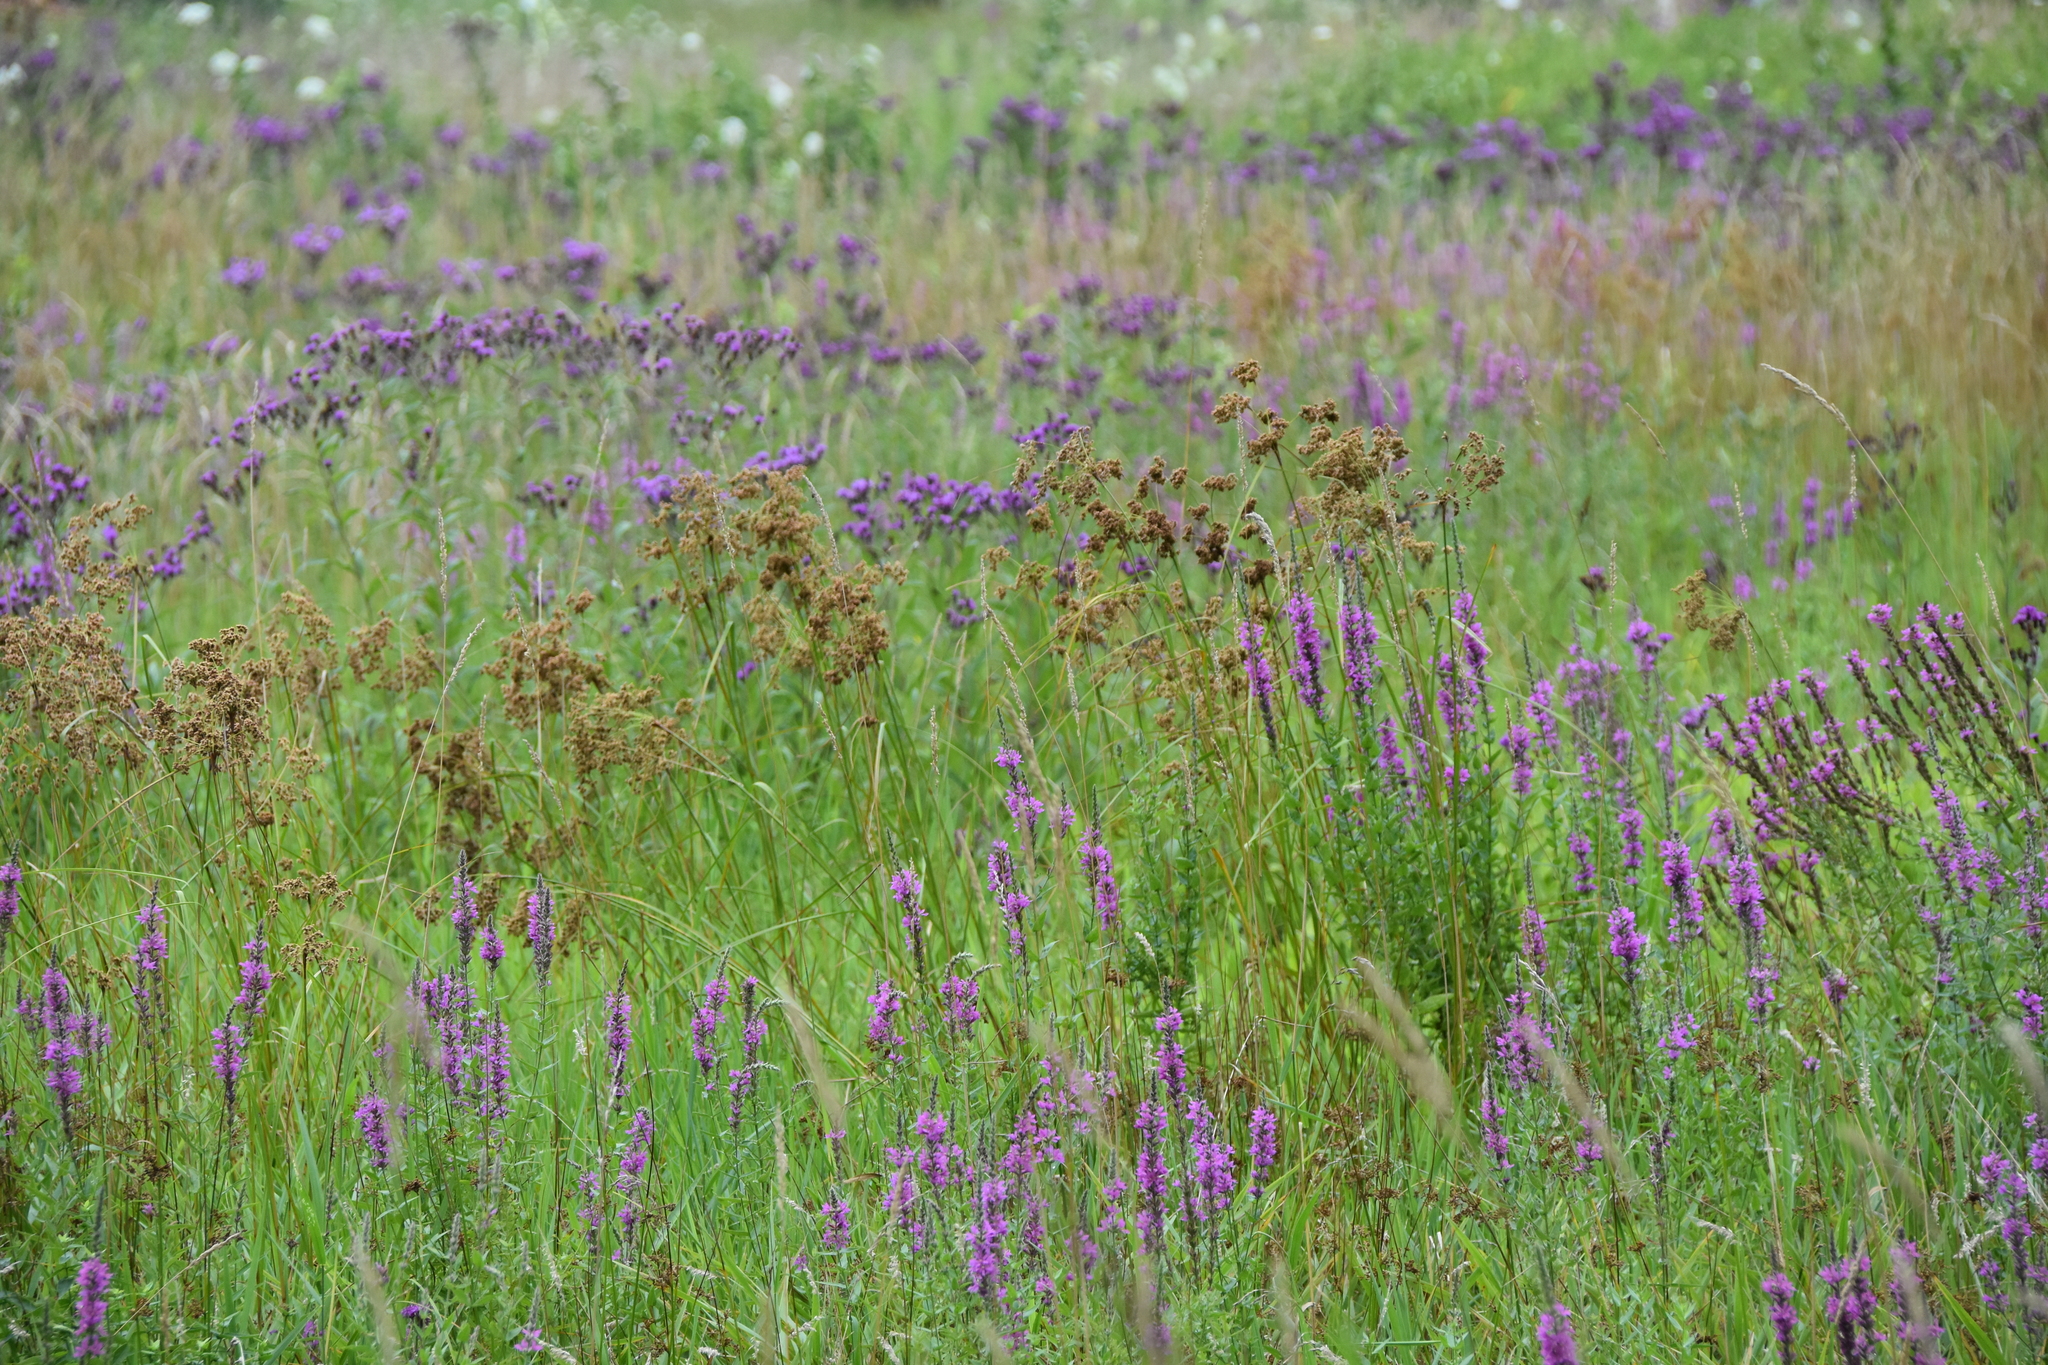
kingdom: Plantae
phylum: Tracheophyta
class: Liliopsida
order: Poales
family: Cyperaceae
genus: Scirpus
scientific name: Scirpus cyperinus
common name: Black-sheathed bulrush
